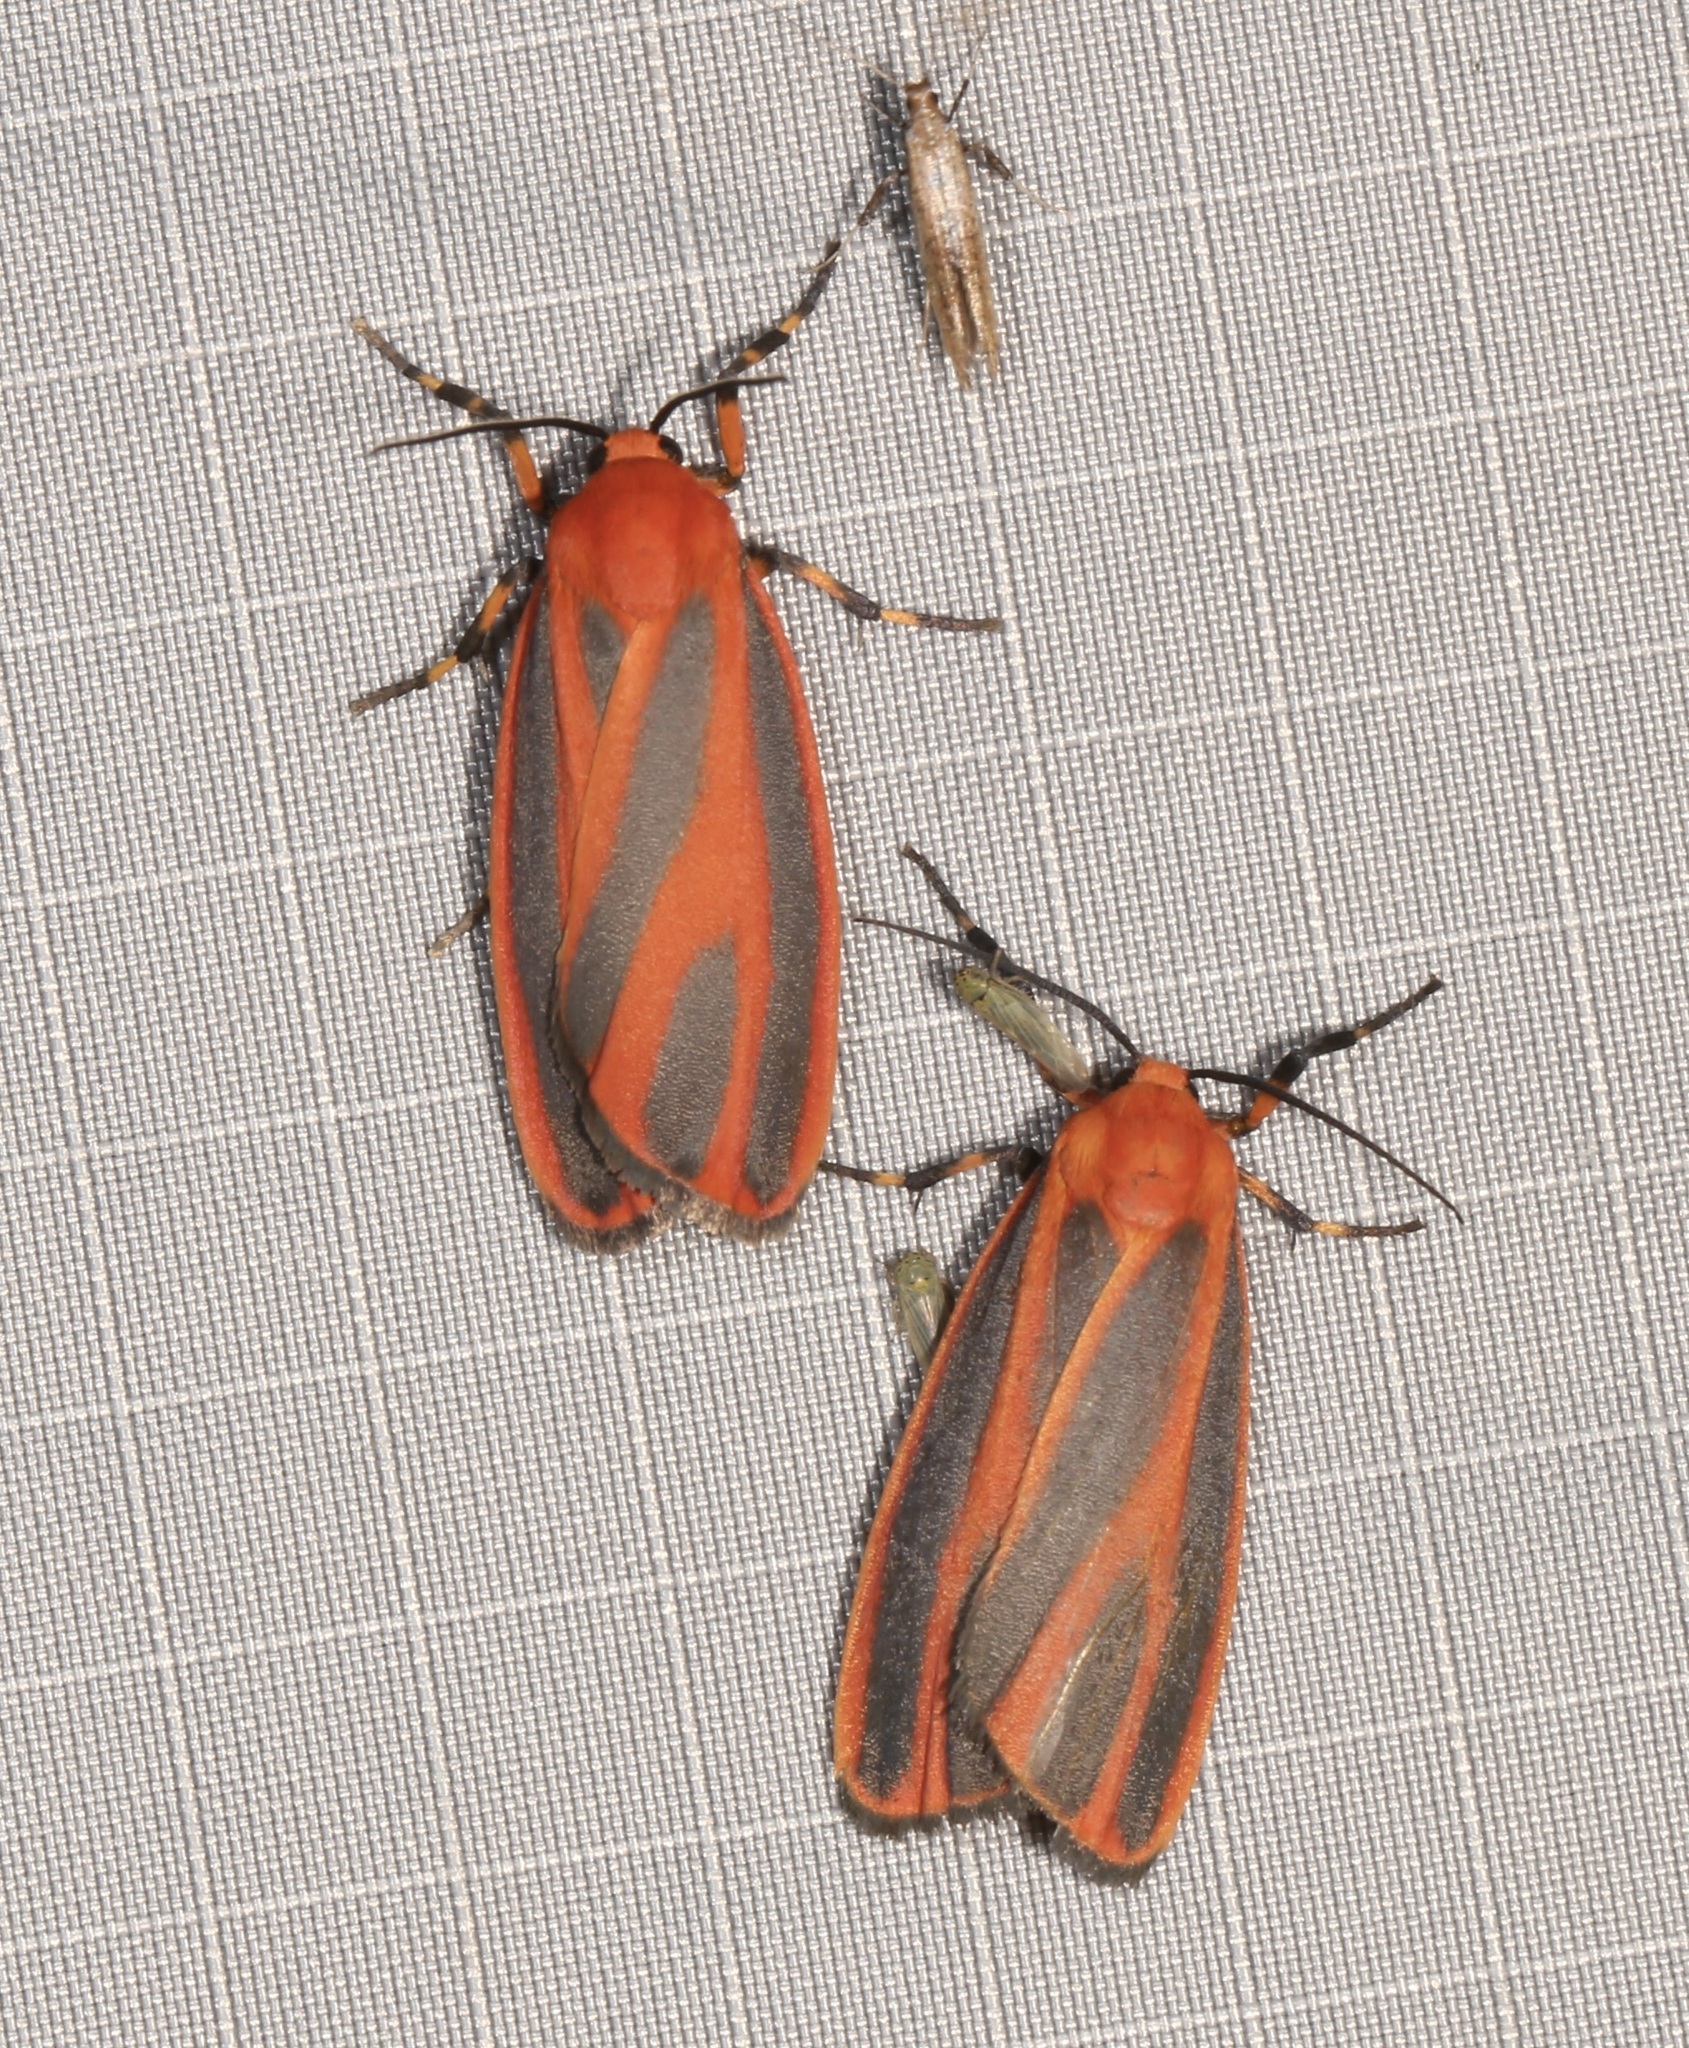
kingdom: Animalia
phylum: Arthropoda
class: Insecta
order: Lepidoptera
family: Erebidae
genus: Hypoprepia
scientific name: Hypoprepia miniata
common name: Scarlet-winged lichen moth
